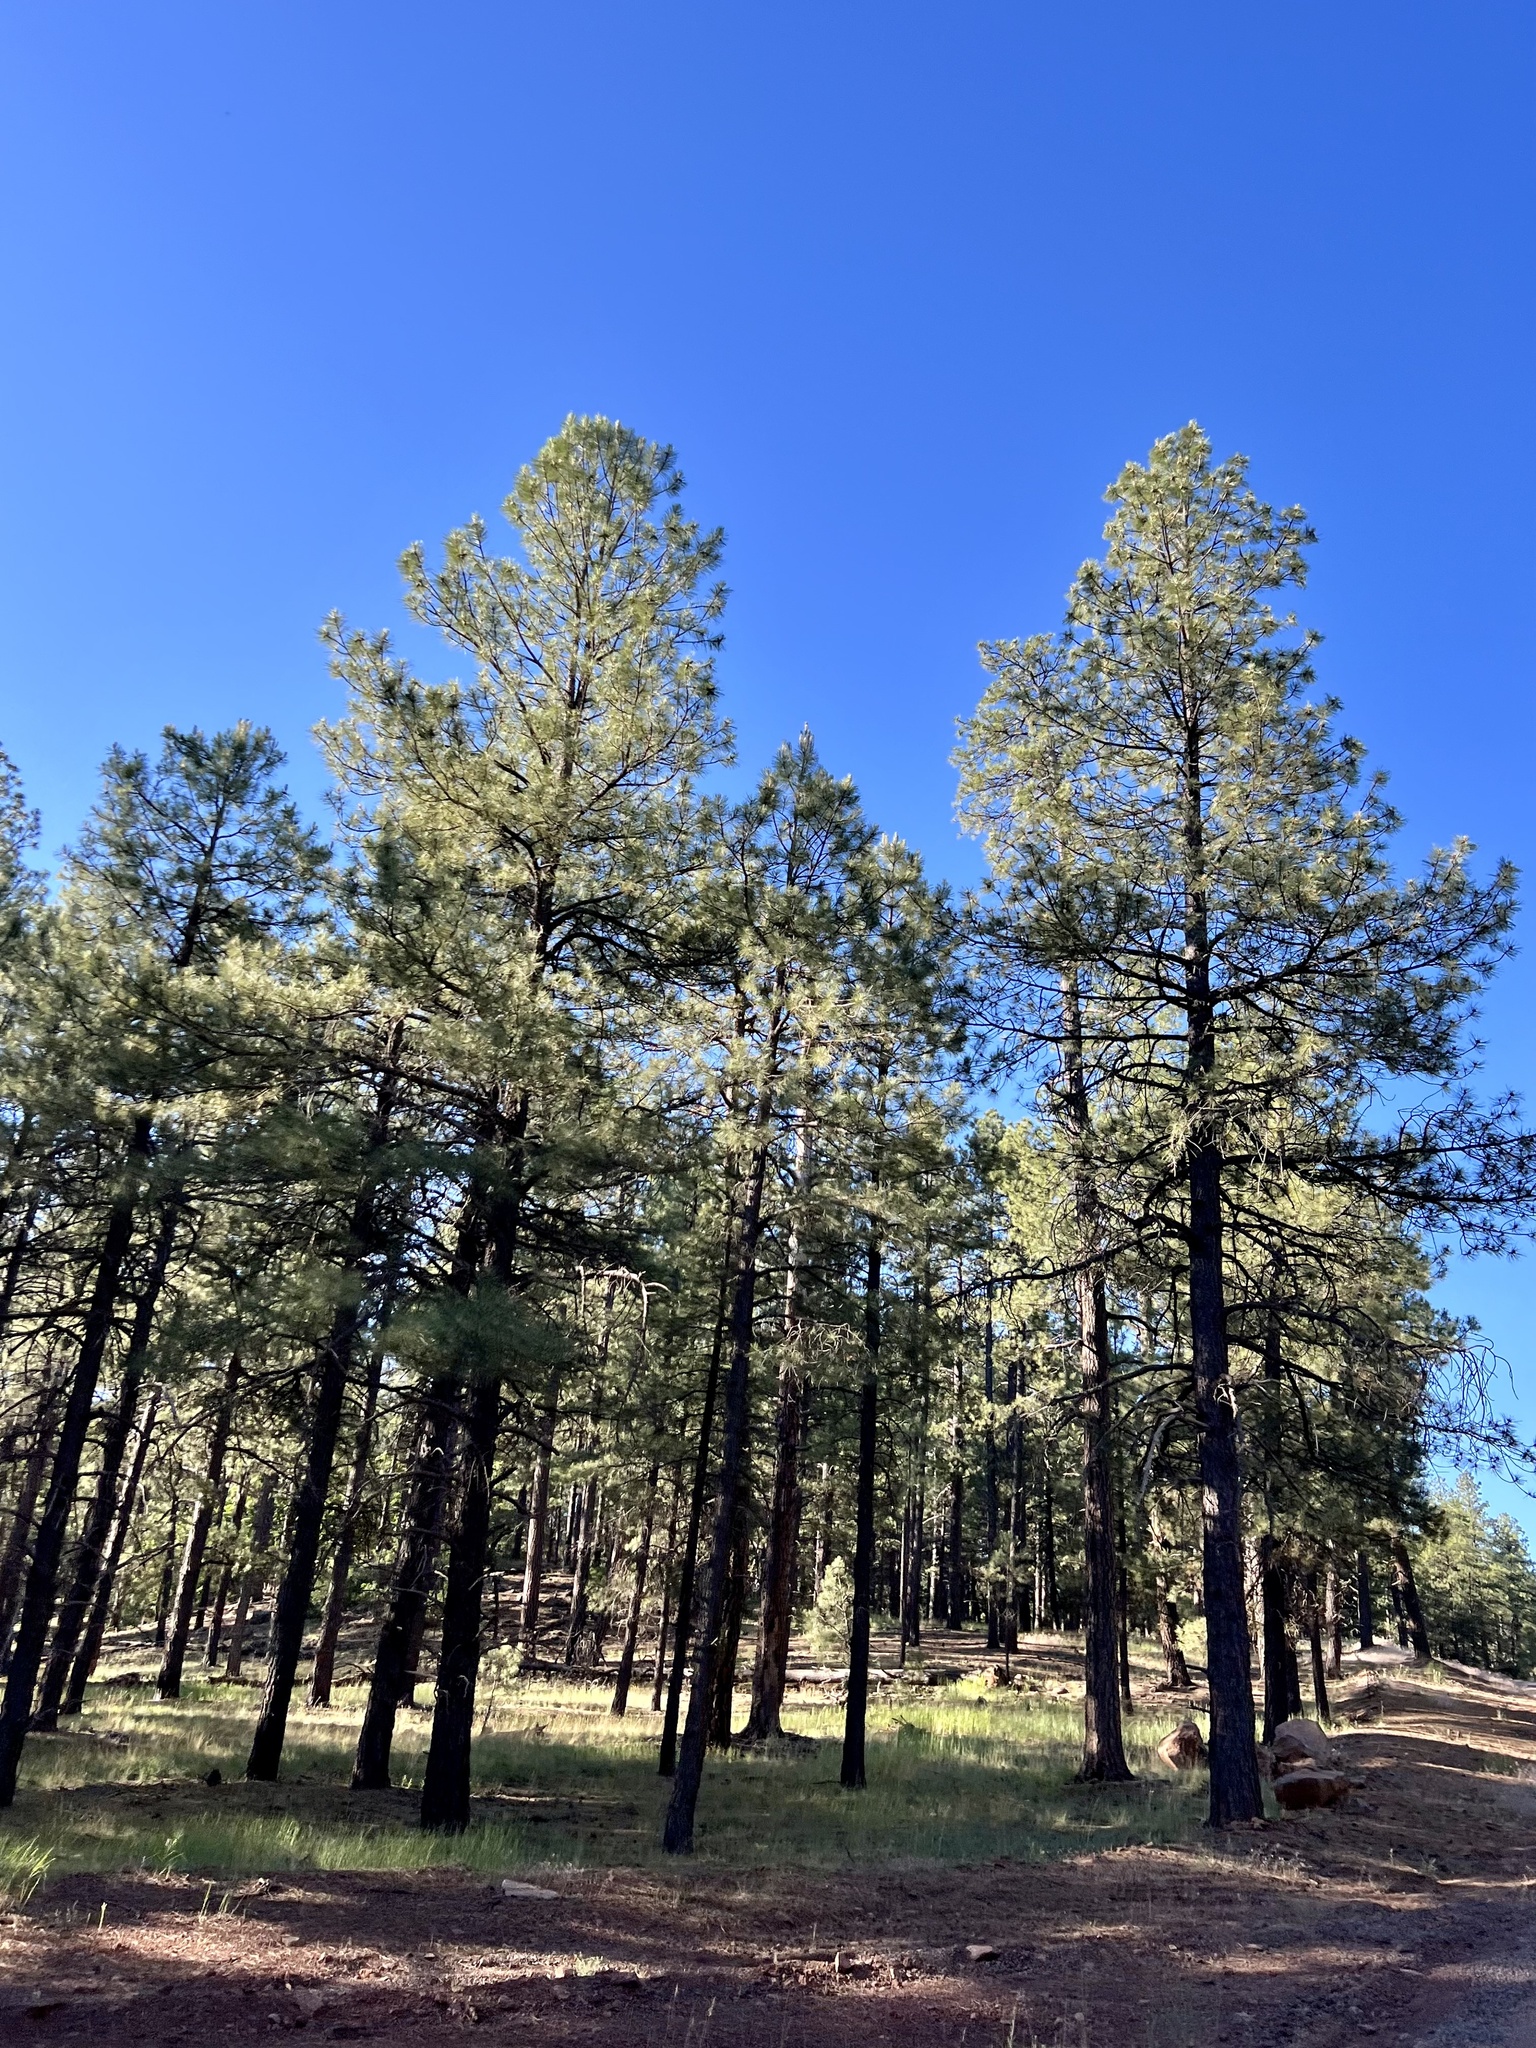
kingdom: Plantae
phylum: Tracheophyta
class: Pinopsida
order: Pinales
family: Pinaceae
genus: Pinus
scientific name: Pinus ponderosa
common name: Western yellow-pine
